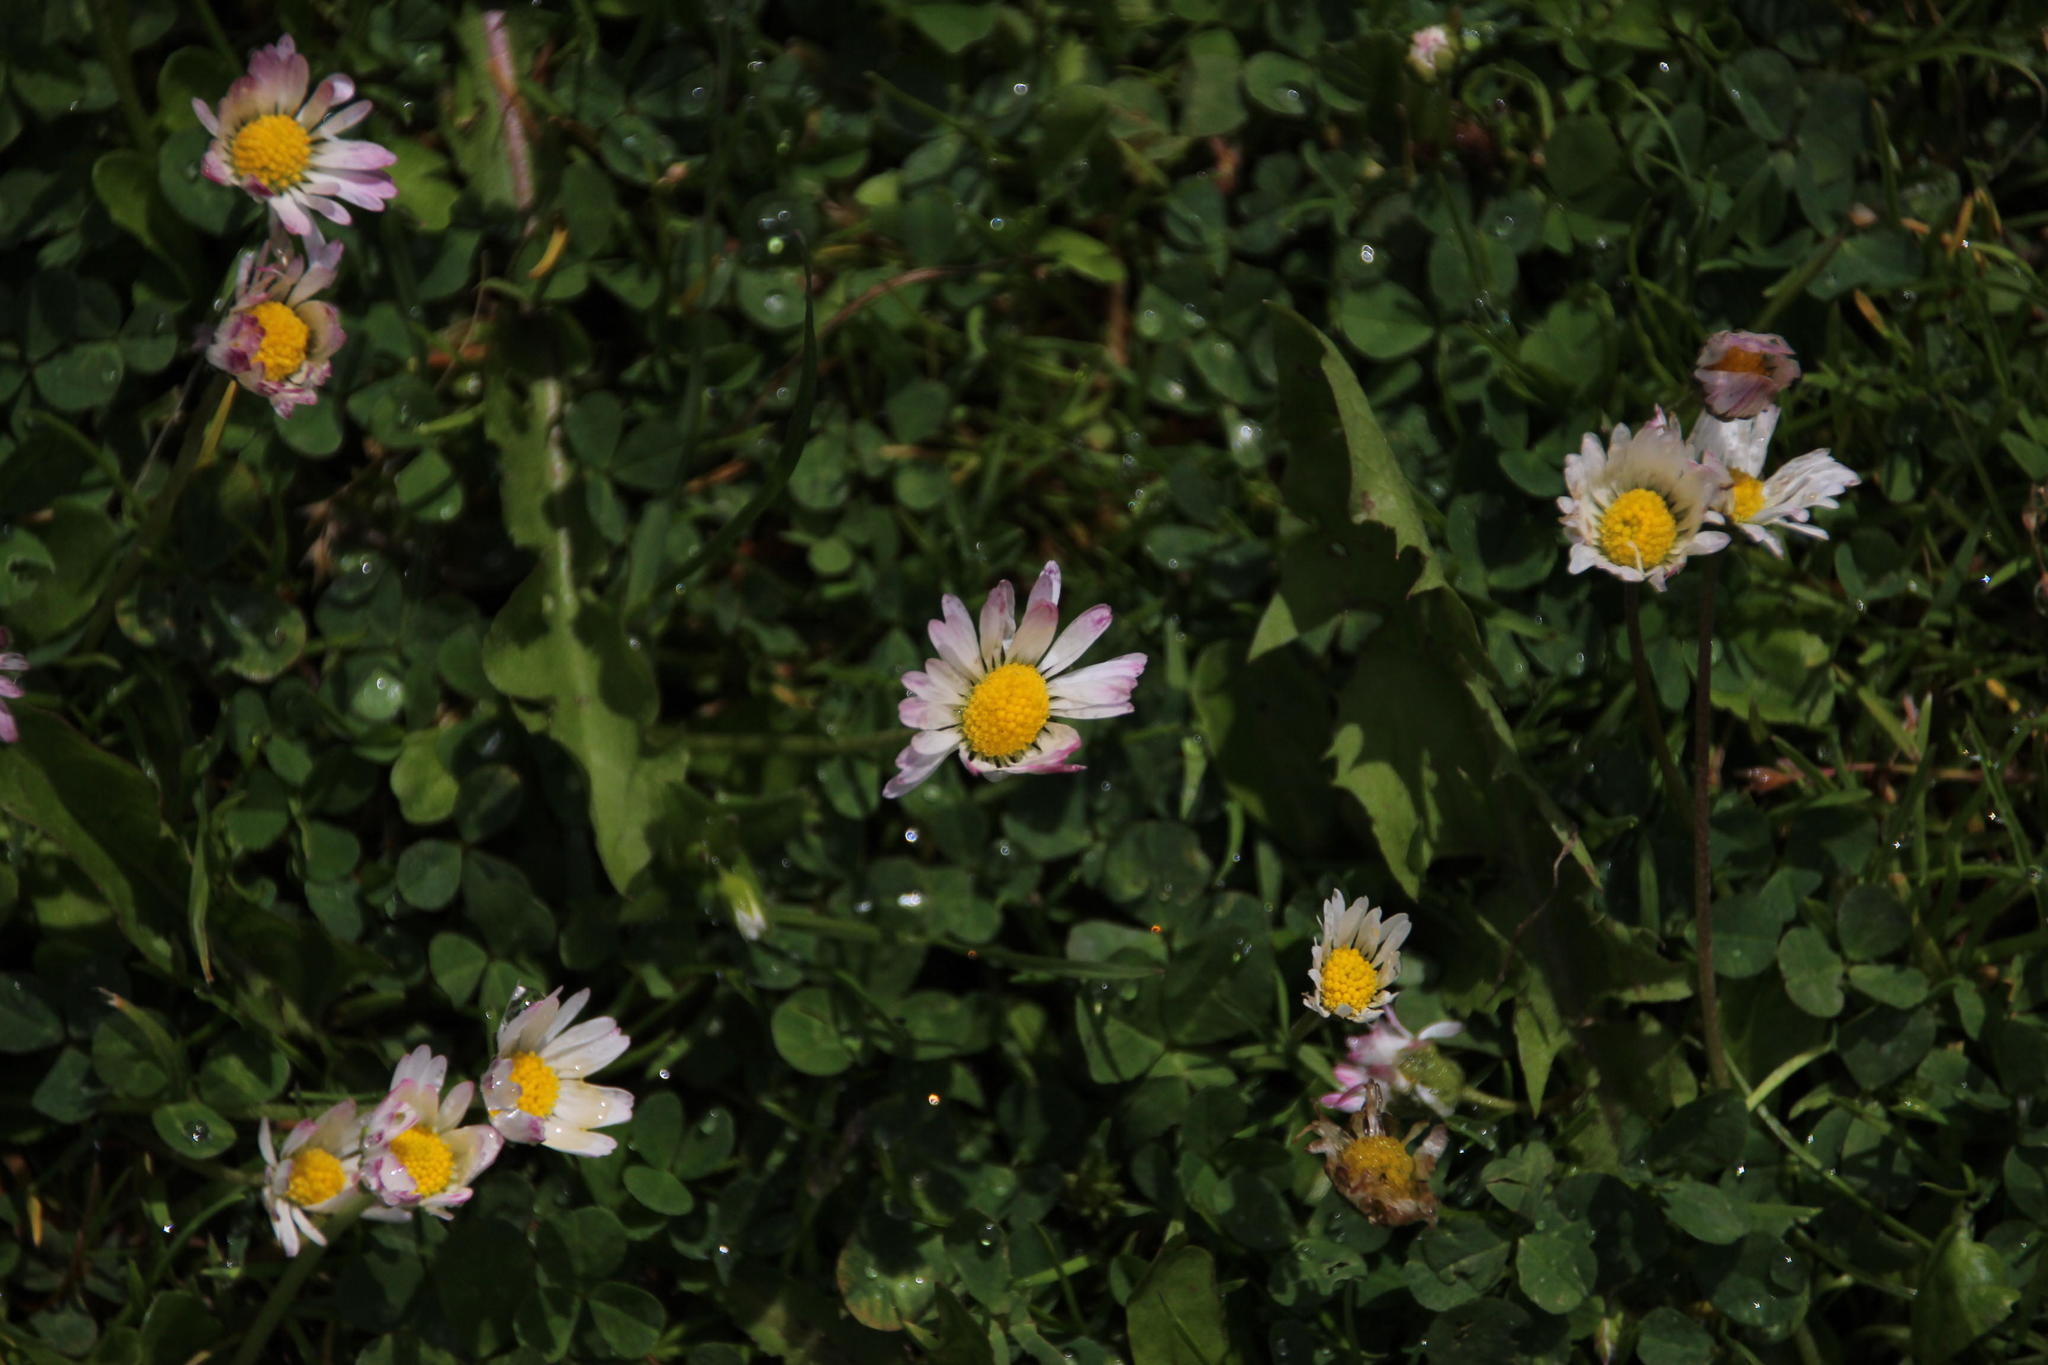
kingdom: Plantae
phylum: Tracheophyta
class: Magnoliopsida
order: Asterales
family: Asteraceae
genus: Bellis
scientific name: Bellis perennis
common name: Lawndaisy
